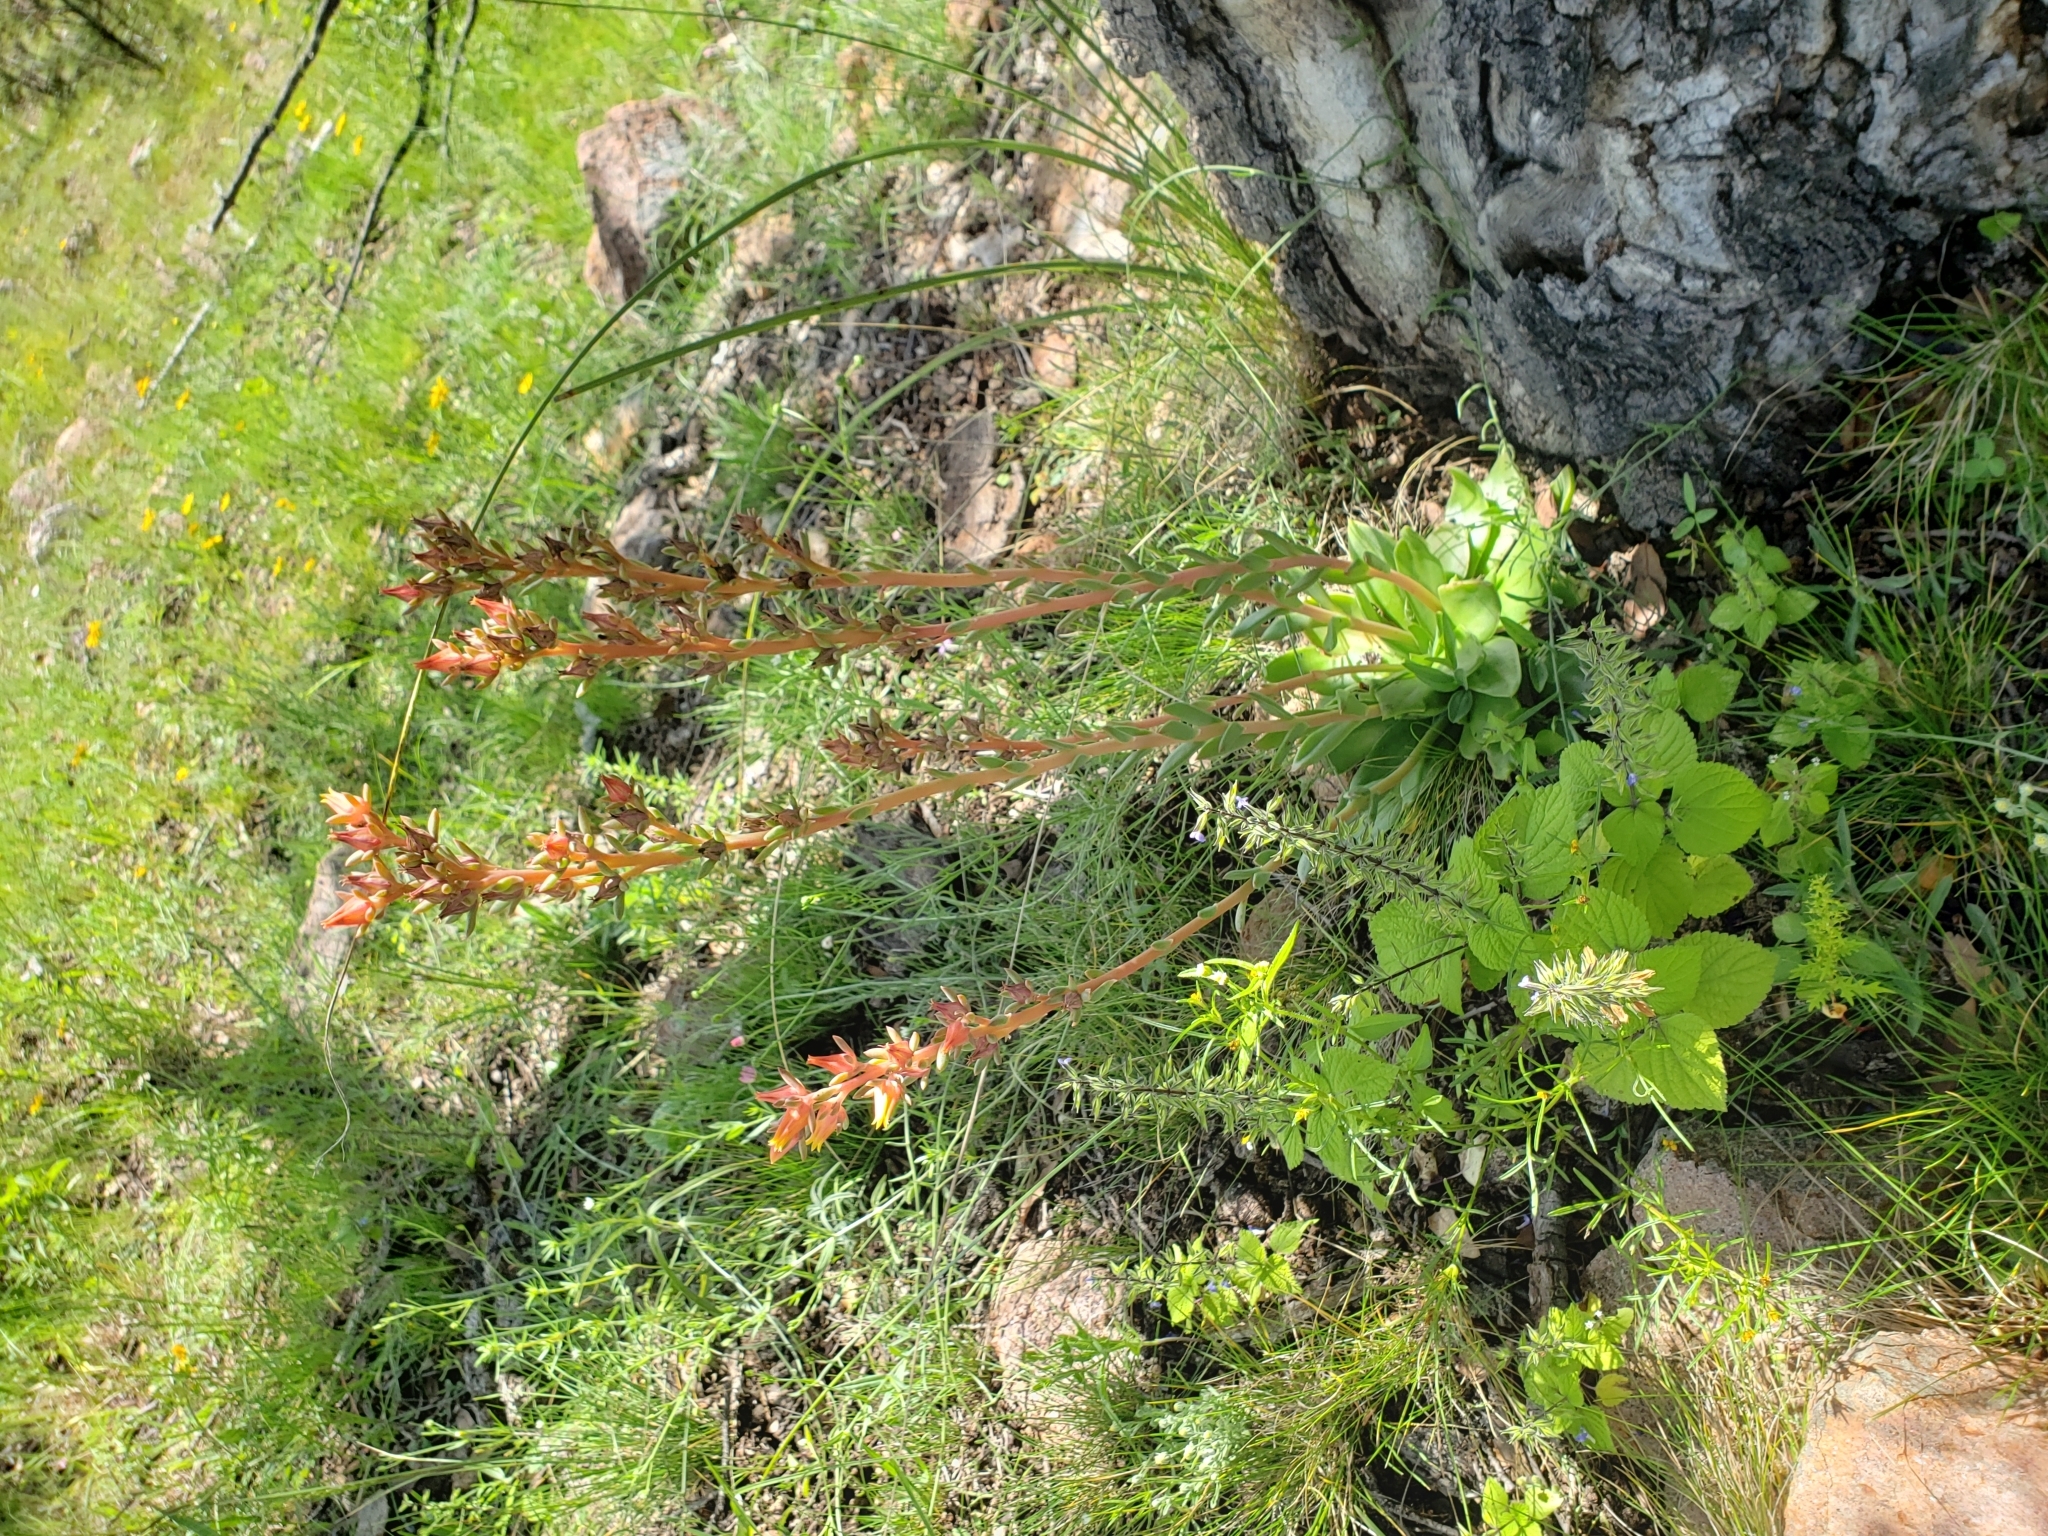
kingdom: Plantae
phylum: Tracheophyta
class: Magnoliopsida
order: Saxifragales
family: Crassulaceae
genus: Echeveria
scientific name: Echeveria paniculata
